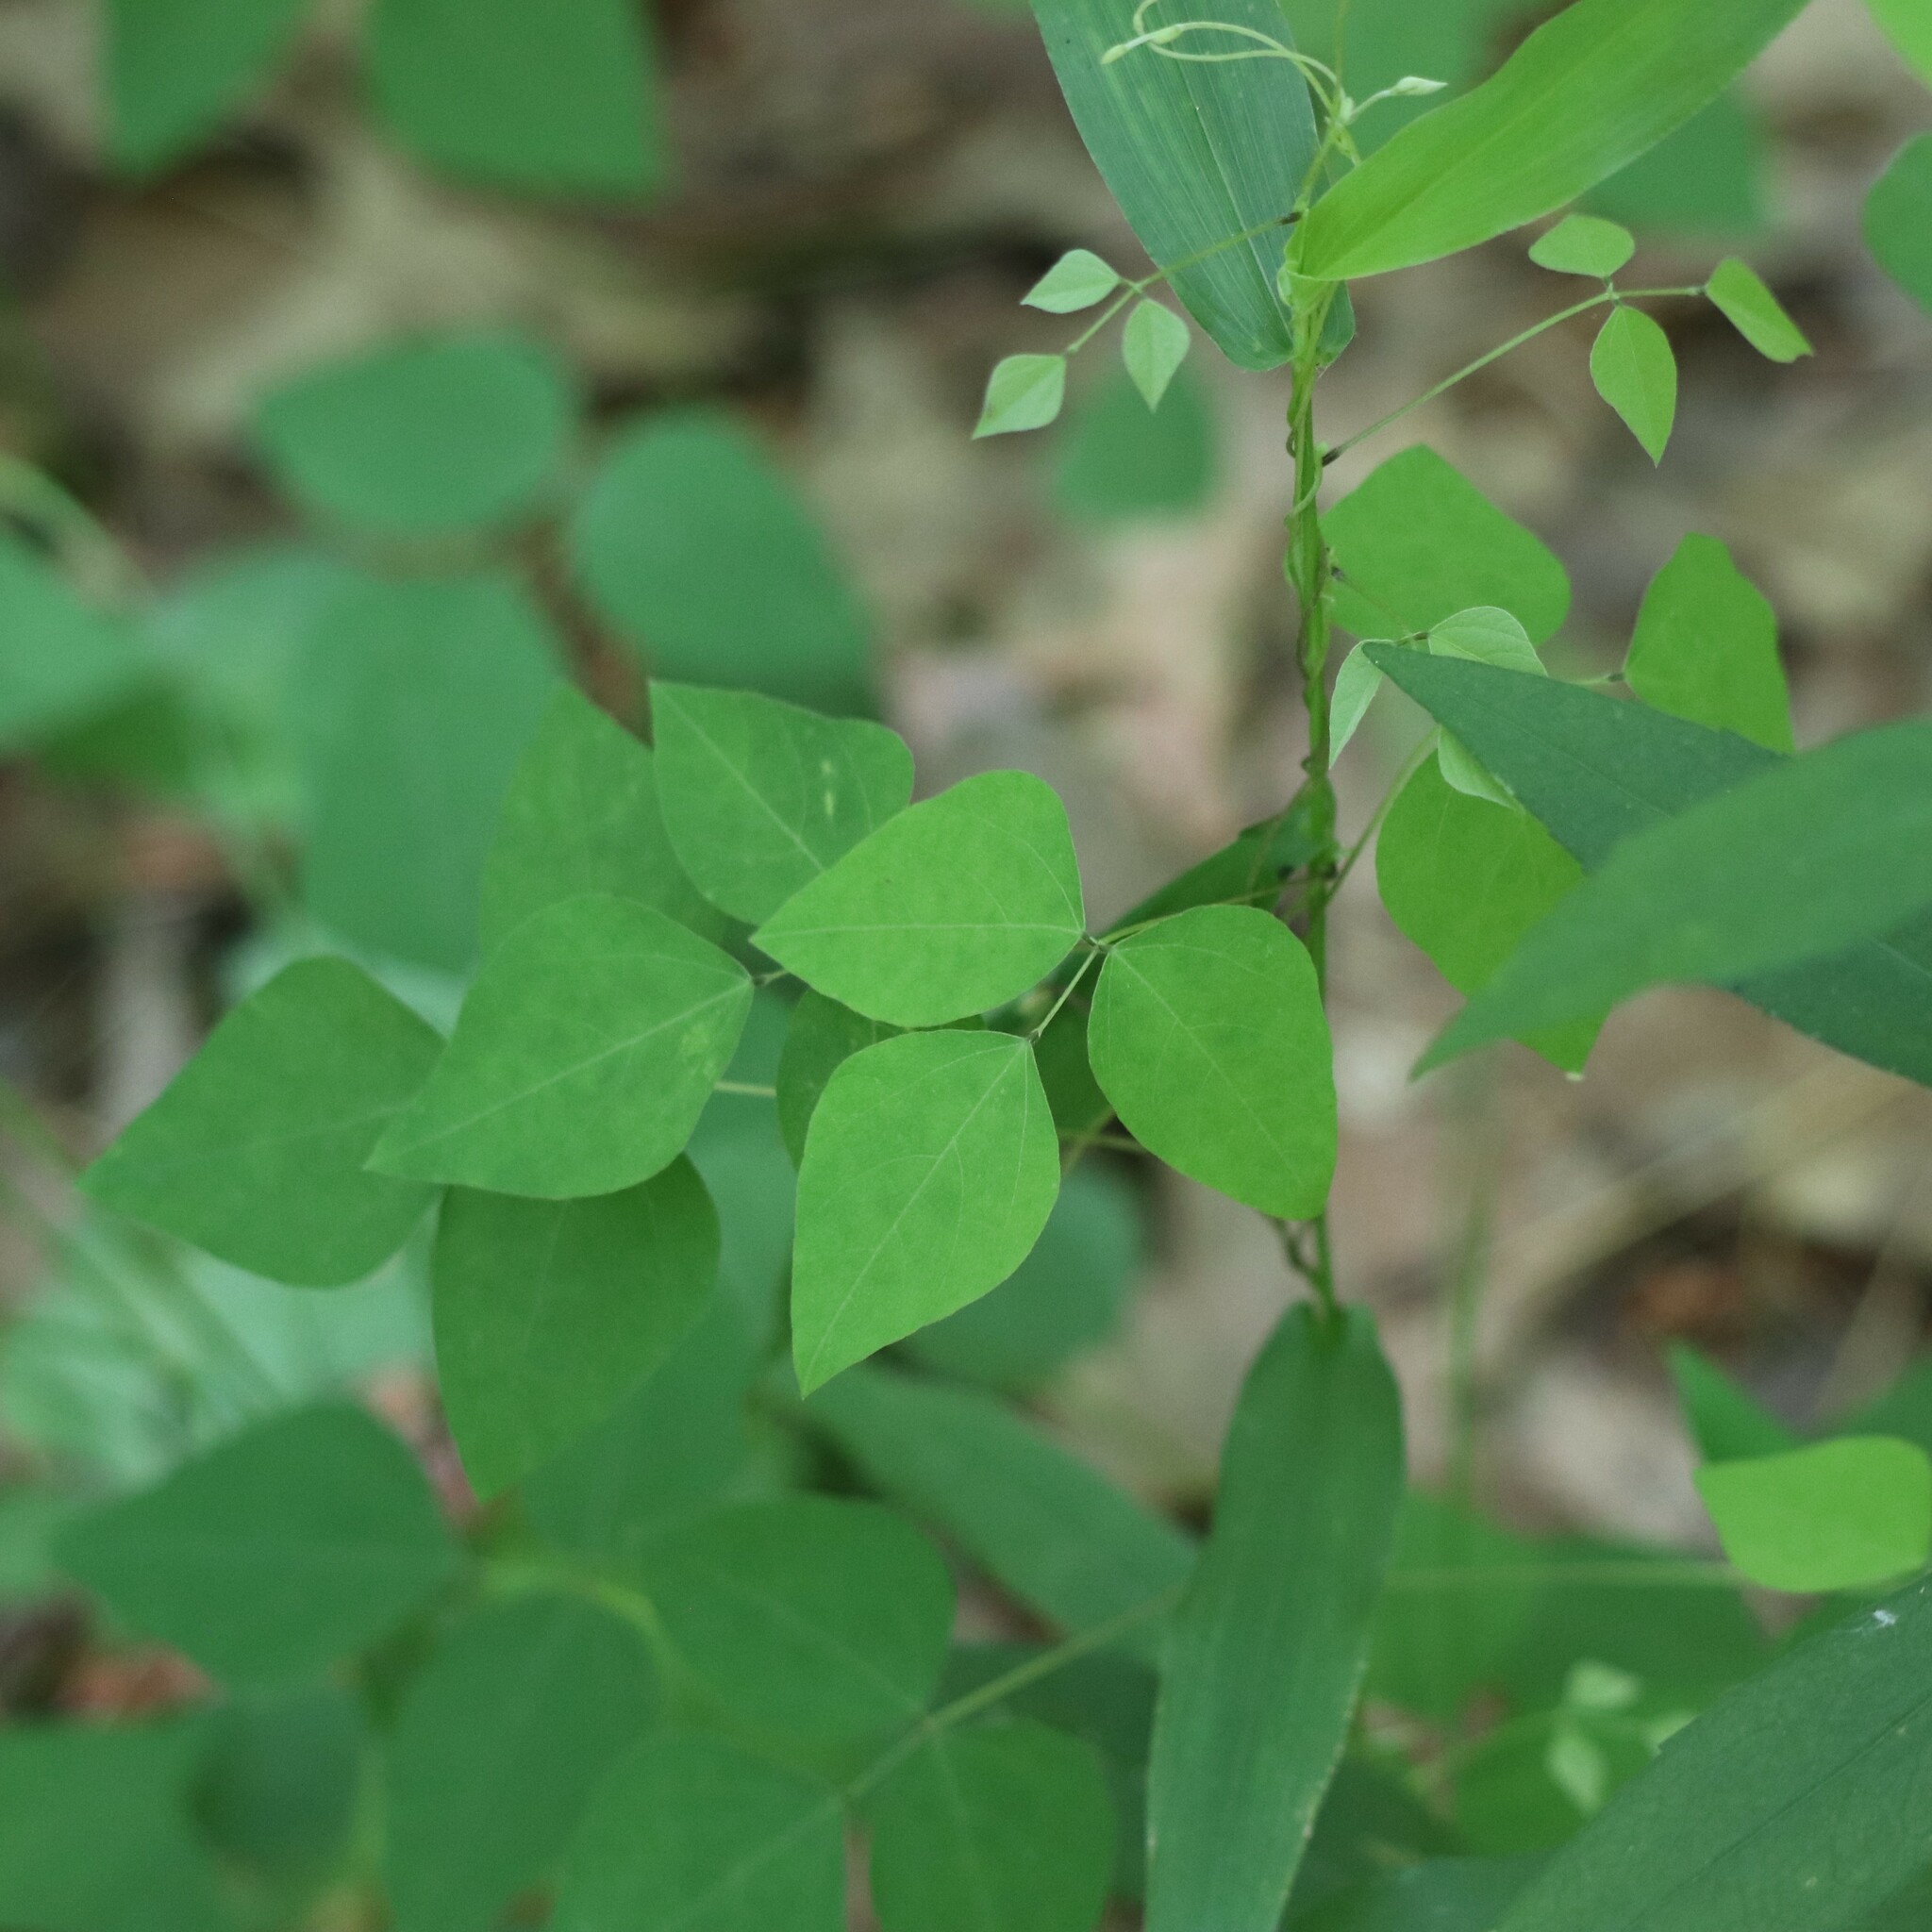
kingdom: Plantae
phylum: Tracheophyta
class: Magnoliopsida
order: Fabales
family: Fabaceae
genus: Amphicarpaea
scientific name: Amphicarpaea bracteata
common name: American hog peanut
